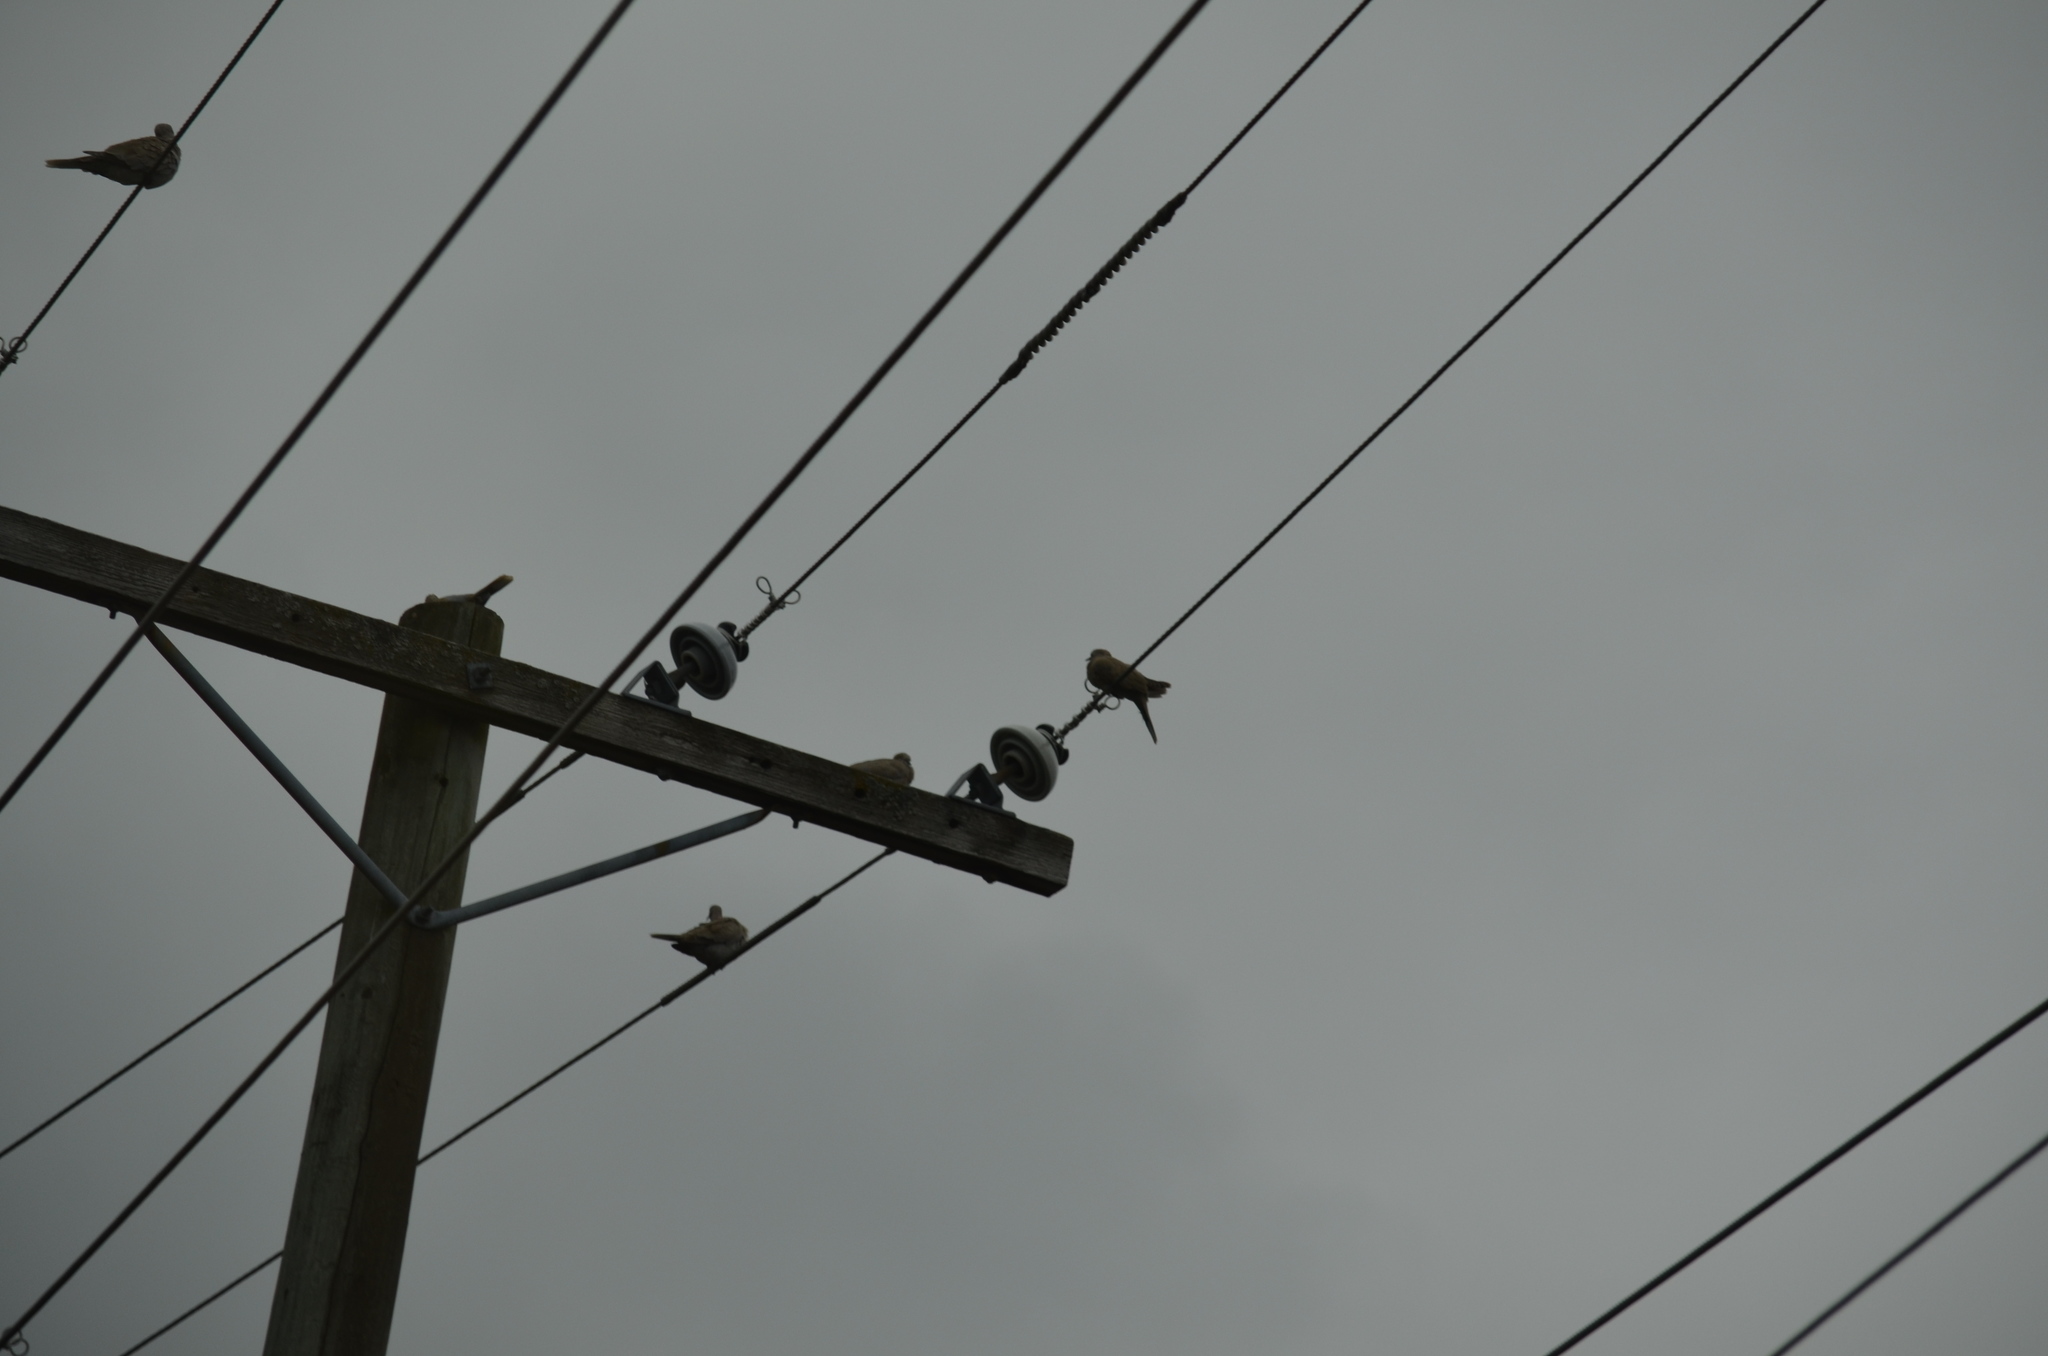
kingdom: Animalia
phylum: Chordata
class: Aves
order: Columbiformes
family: Columbidae
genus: Streptopelia
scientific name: Streptopelia decaocto
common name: Eurasian collared dove
